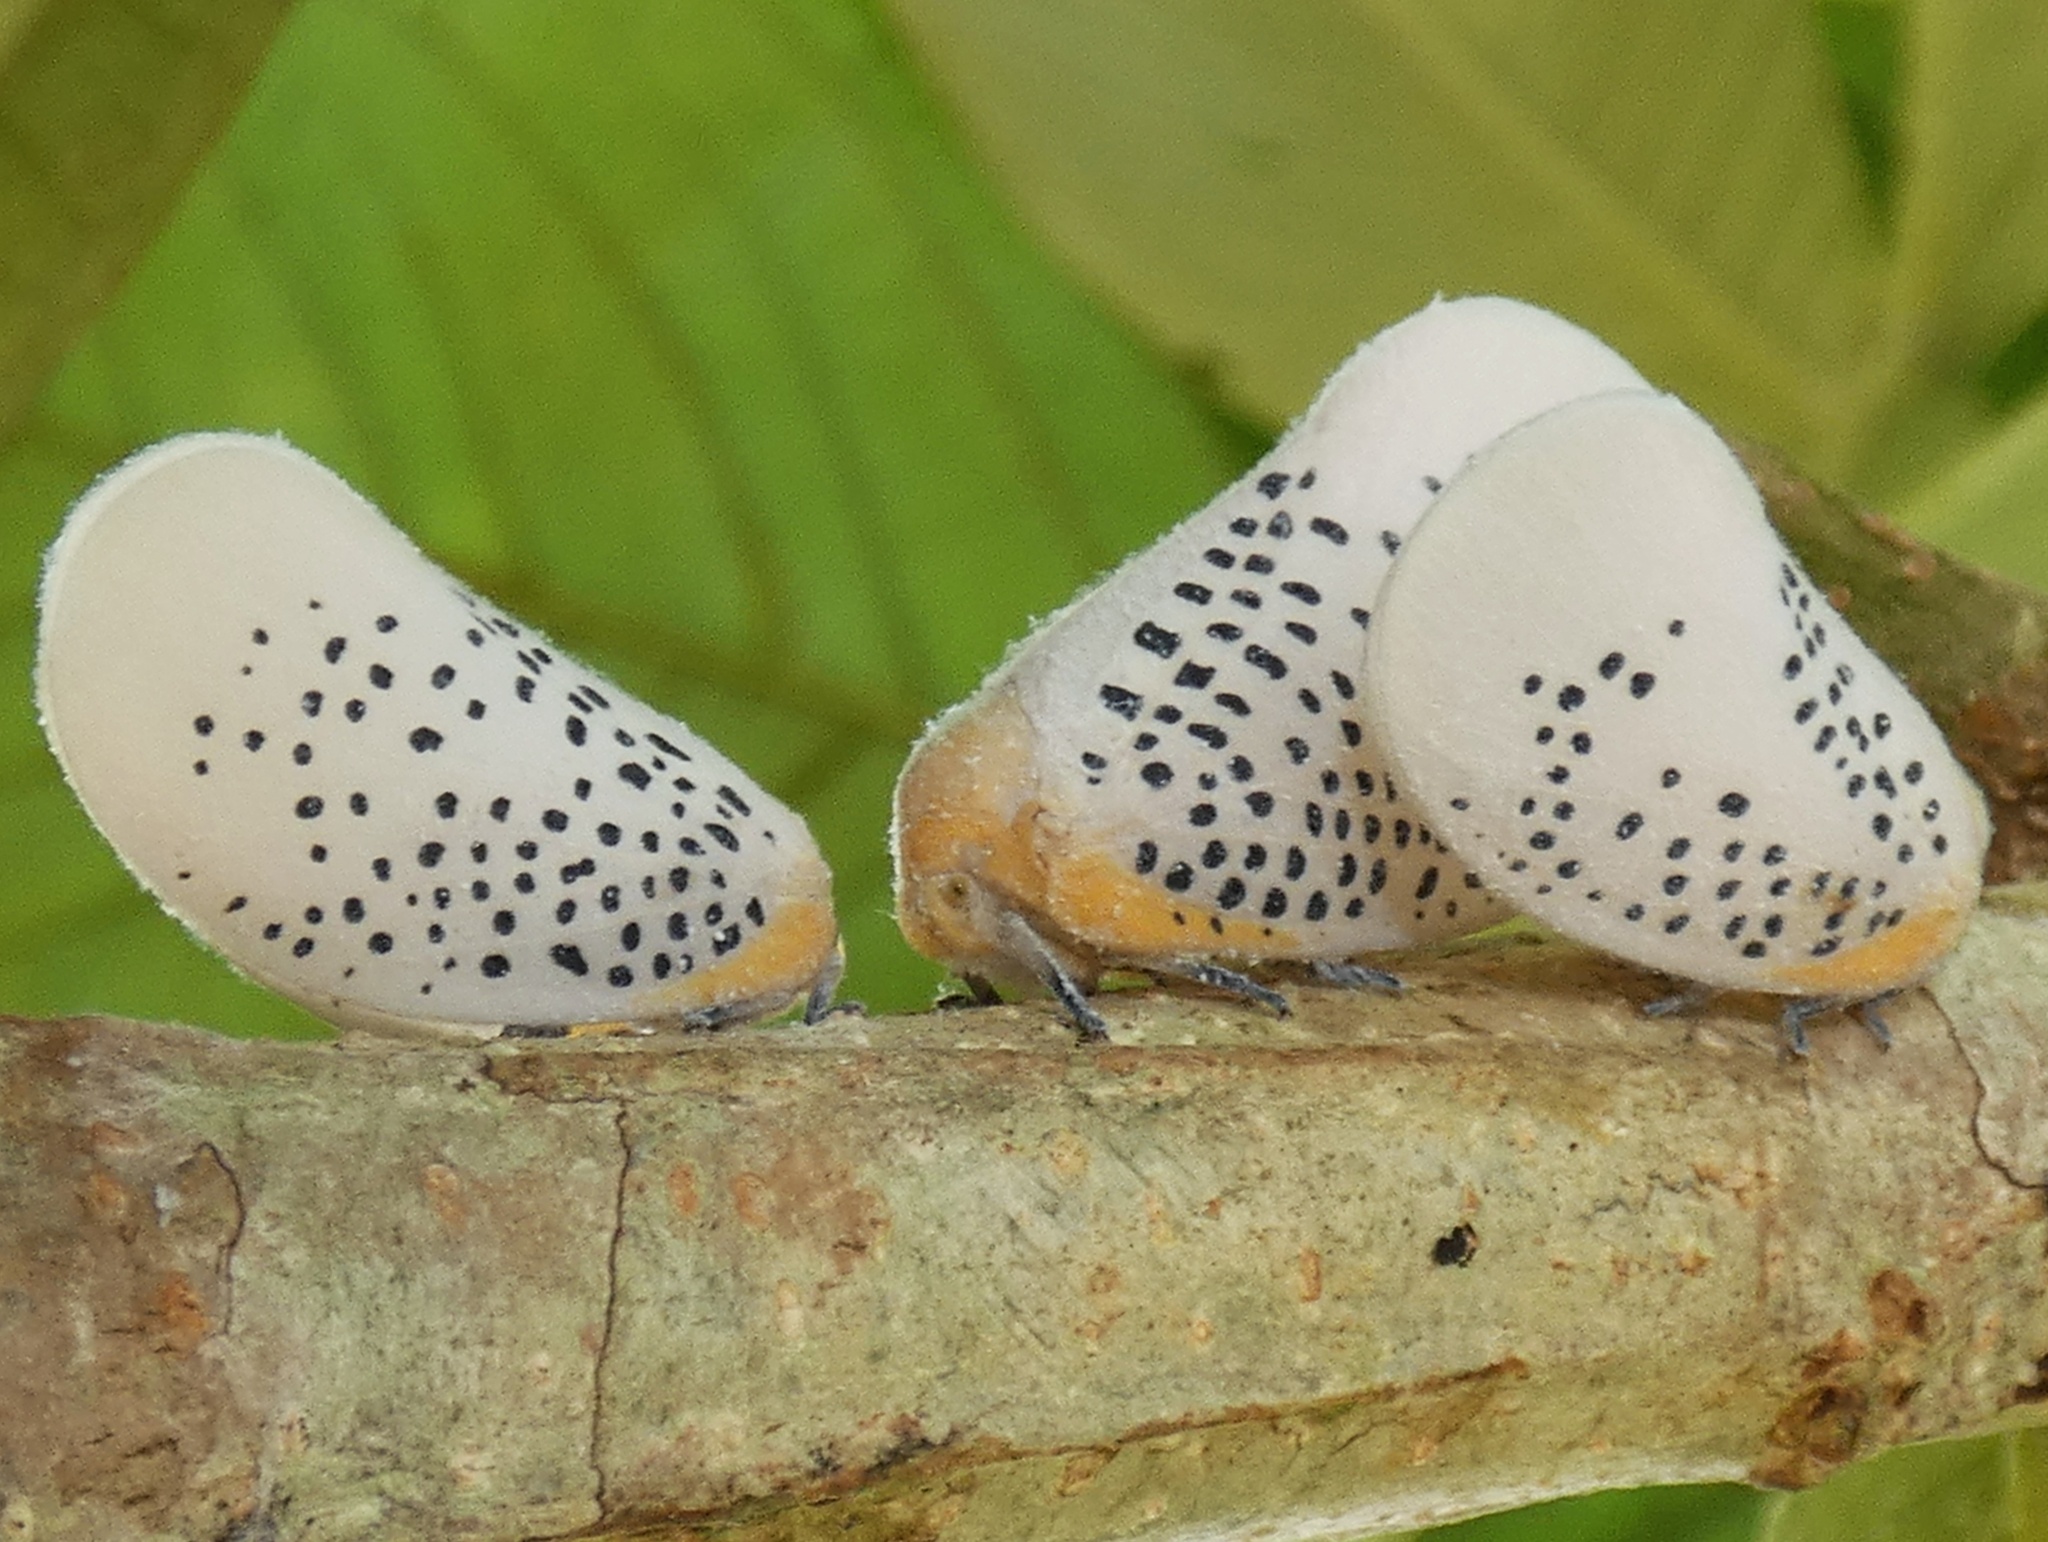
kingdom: Animalia
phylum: Arthropoda
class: Insecta
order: Hemiptera
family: Flatidae
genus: Poekilloptera
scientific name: Poekilloptera phalaenoides
